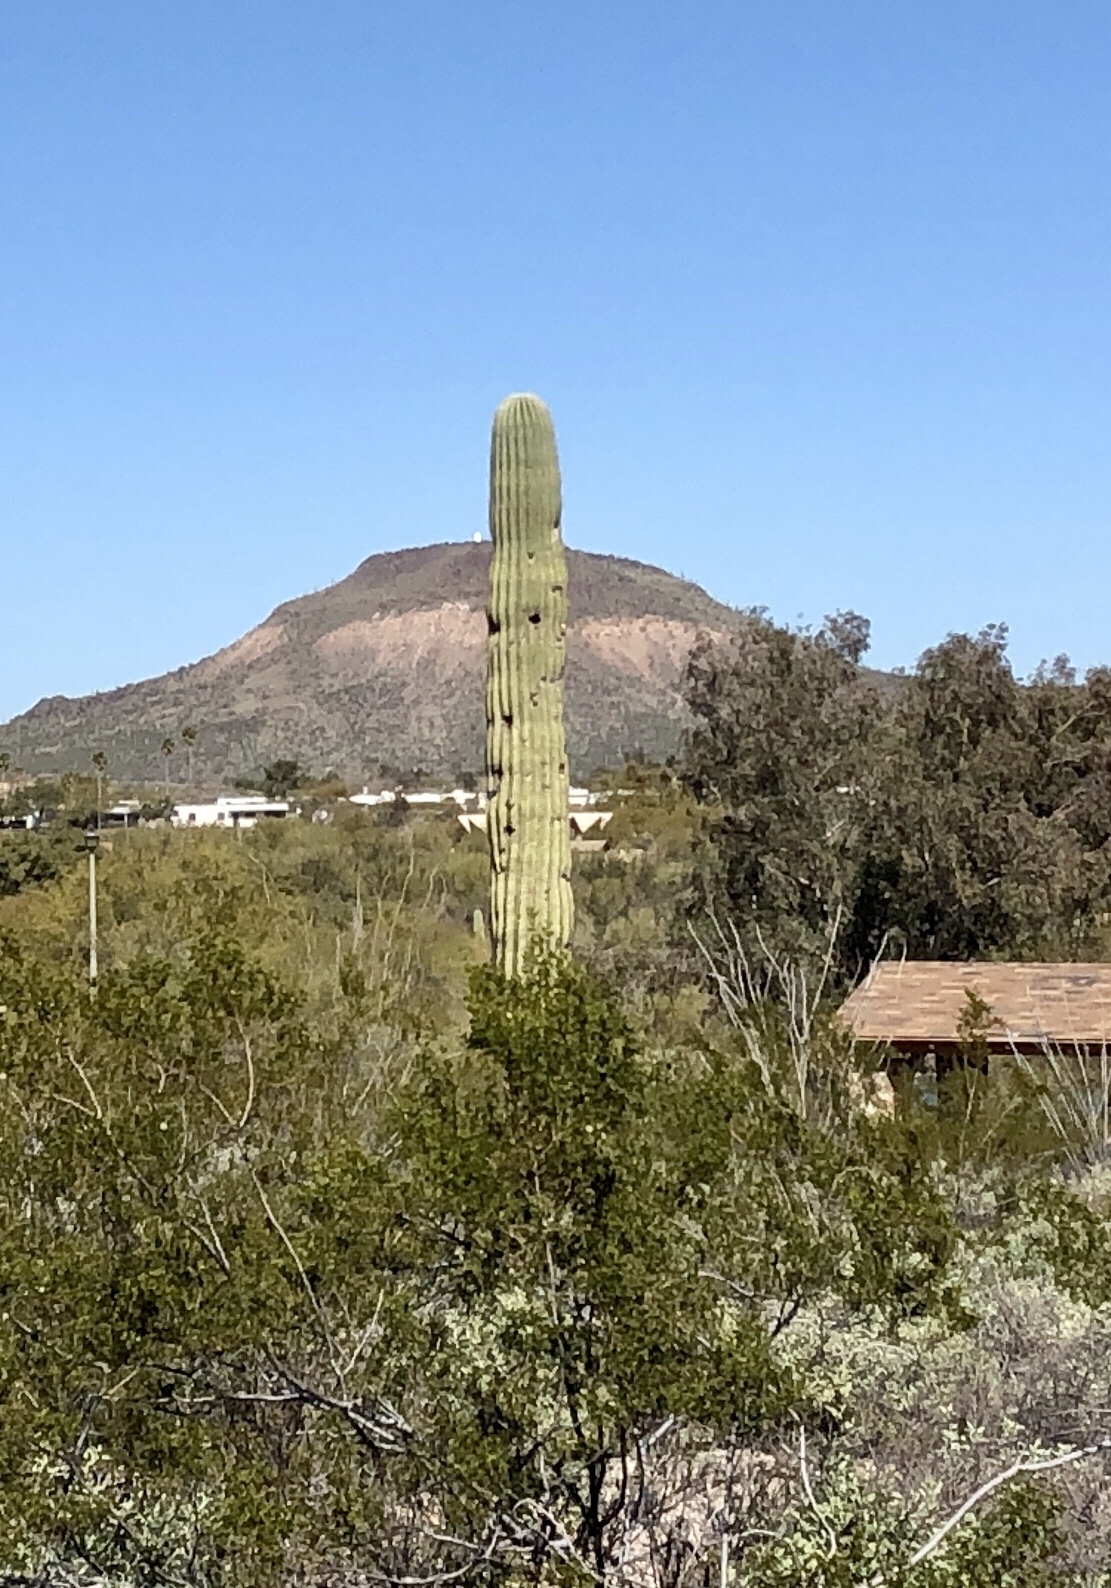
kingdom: Plantae
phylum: Tracheophyta
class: Magnoliopsida
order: Caryophyllales
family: Cactaceae
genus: Carnegiea
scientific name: Carnegiea gigantea
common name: Saguaro
